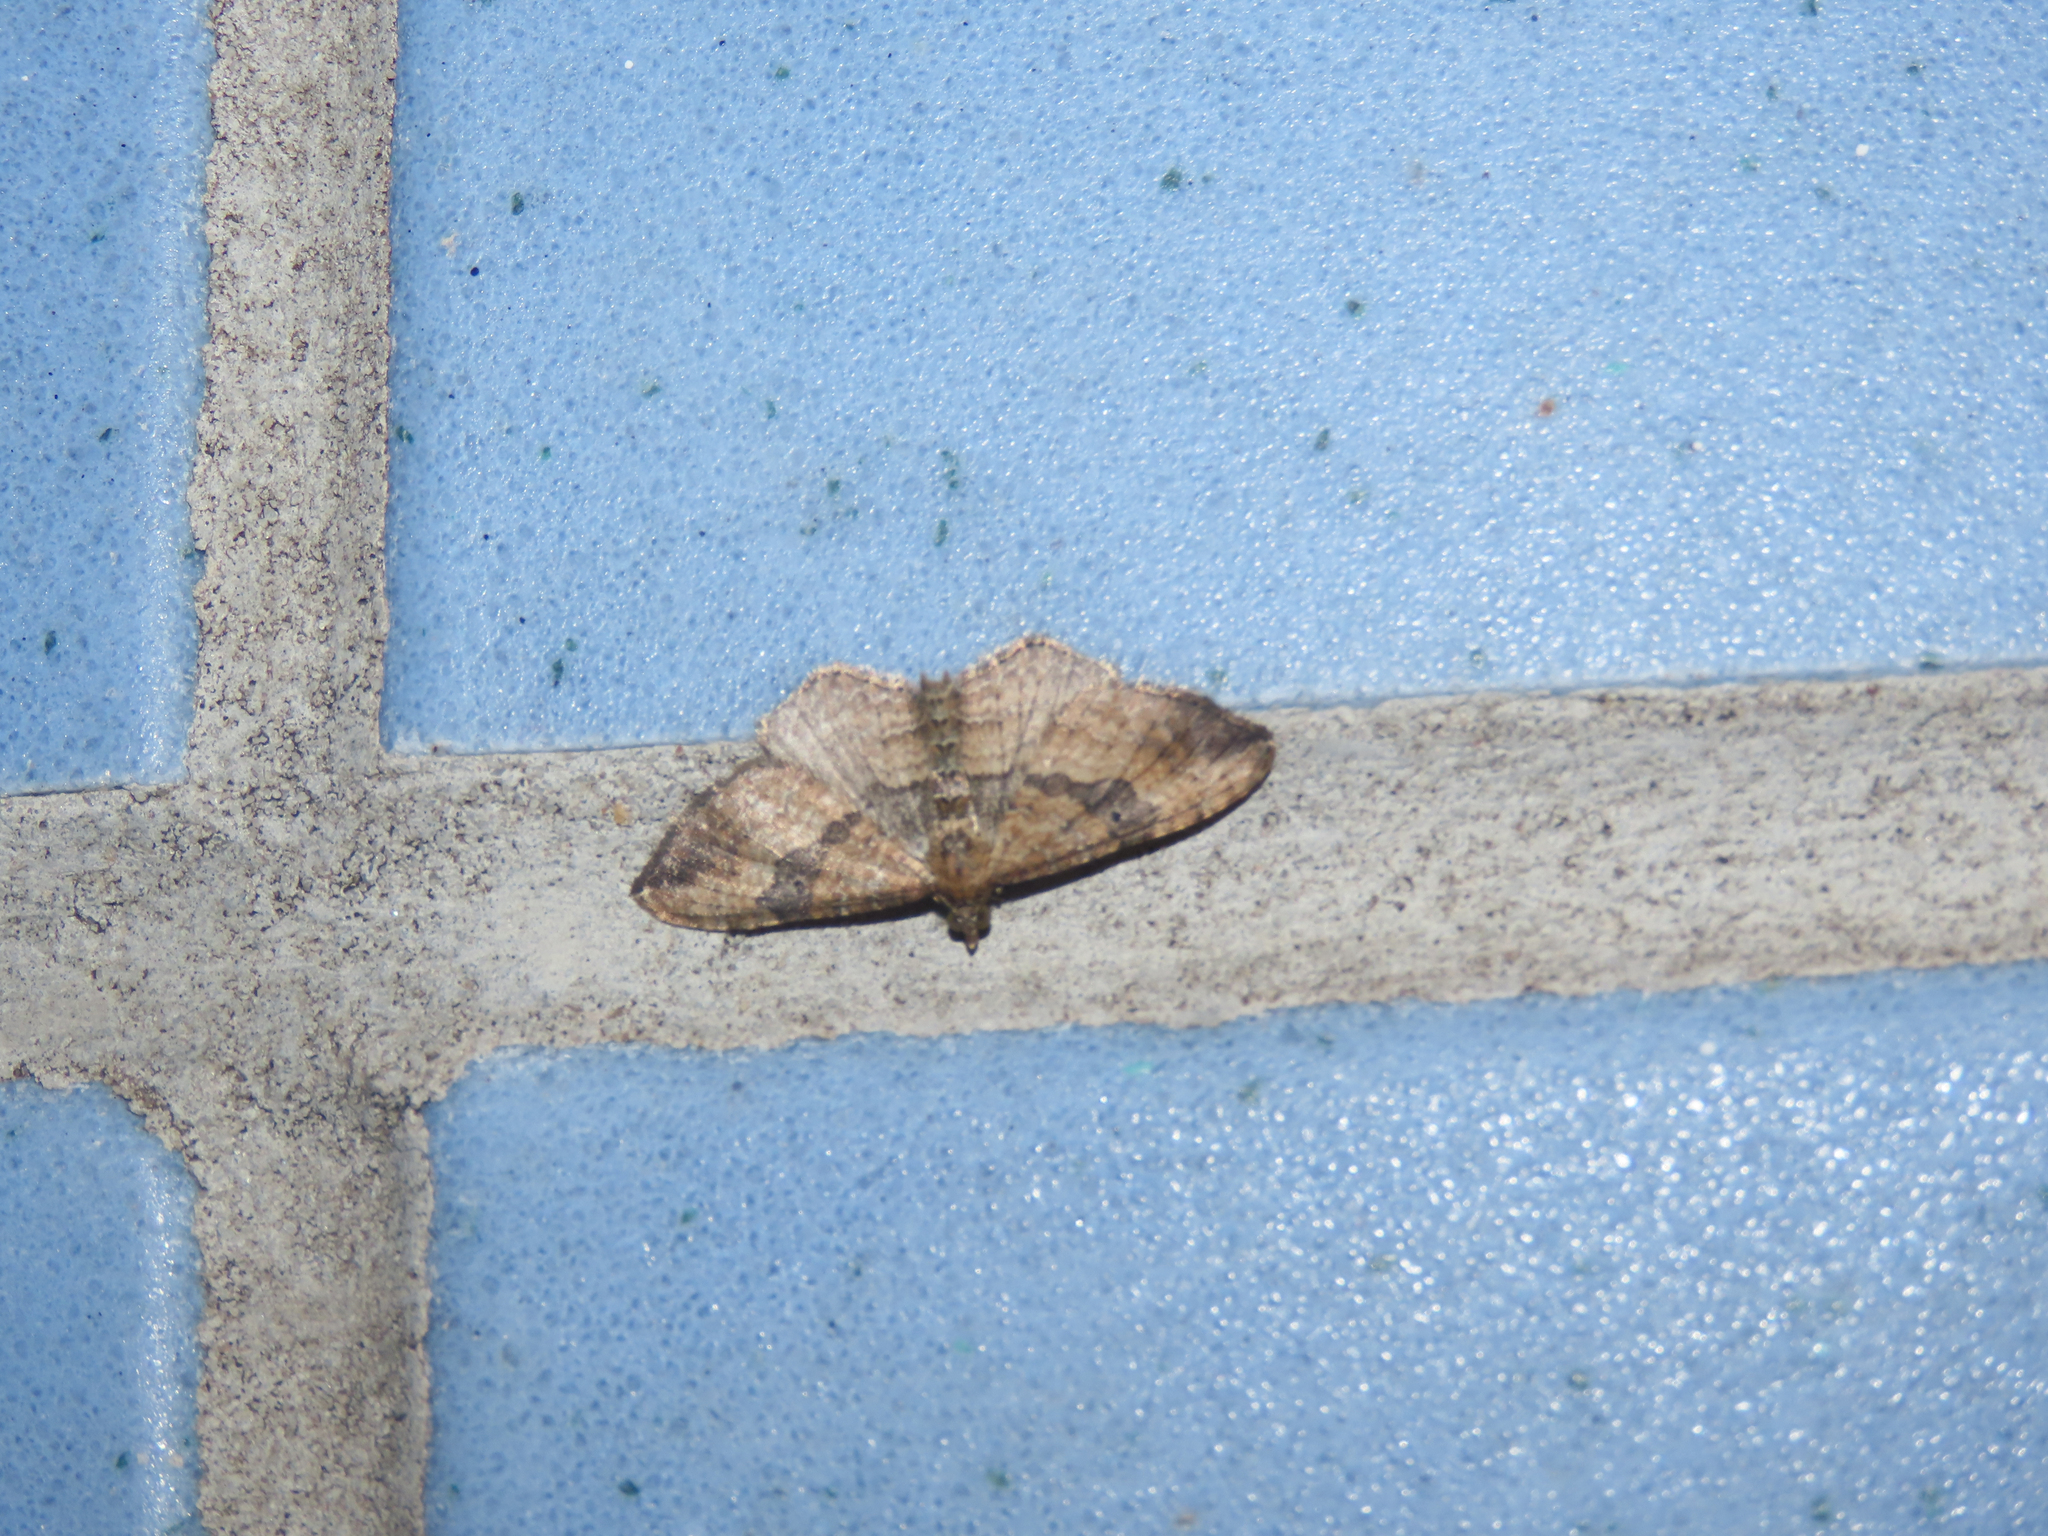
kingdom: Animalia
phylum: Arthropoda
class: Insecta
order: Lepidoptera
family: Geometridae
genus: Orthonama
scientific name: Orthonama obstipata
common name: The gem
